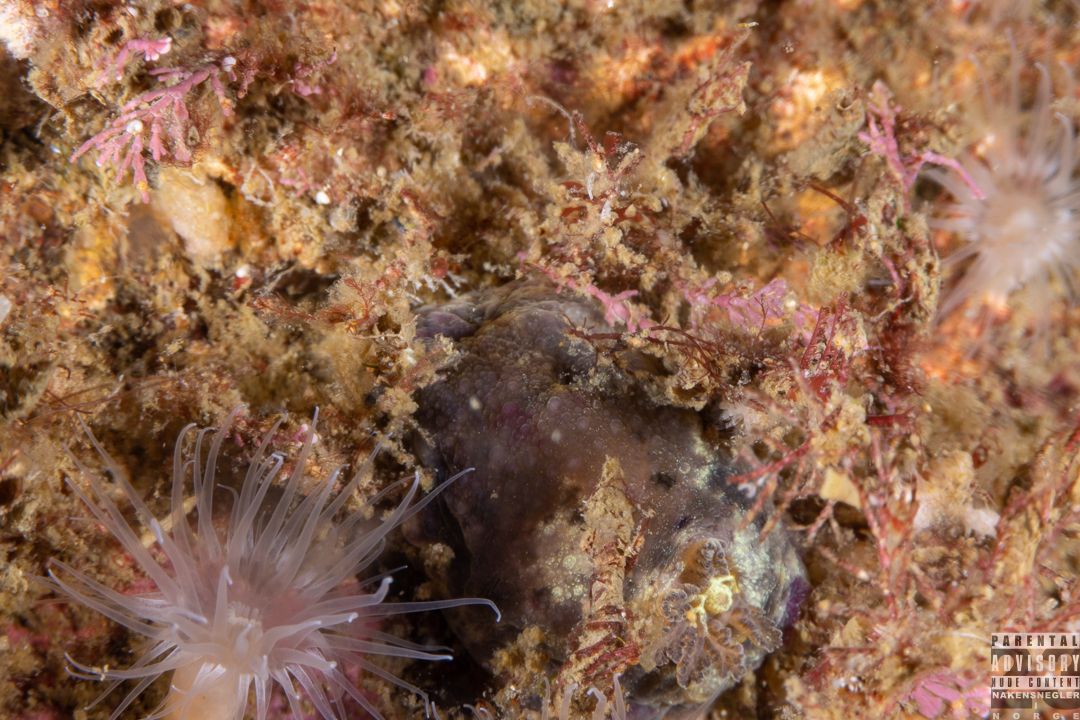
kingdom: Animalia
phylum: Mollusca
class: Gastropoda
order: Nudibranchia
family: Dorididae
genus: Doris
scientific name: Doris pseudoargus
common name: Sea lemon
